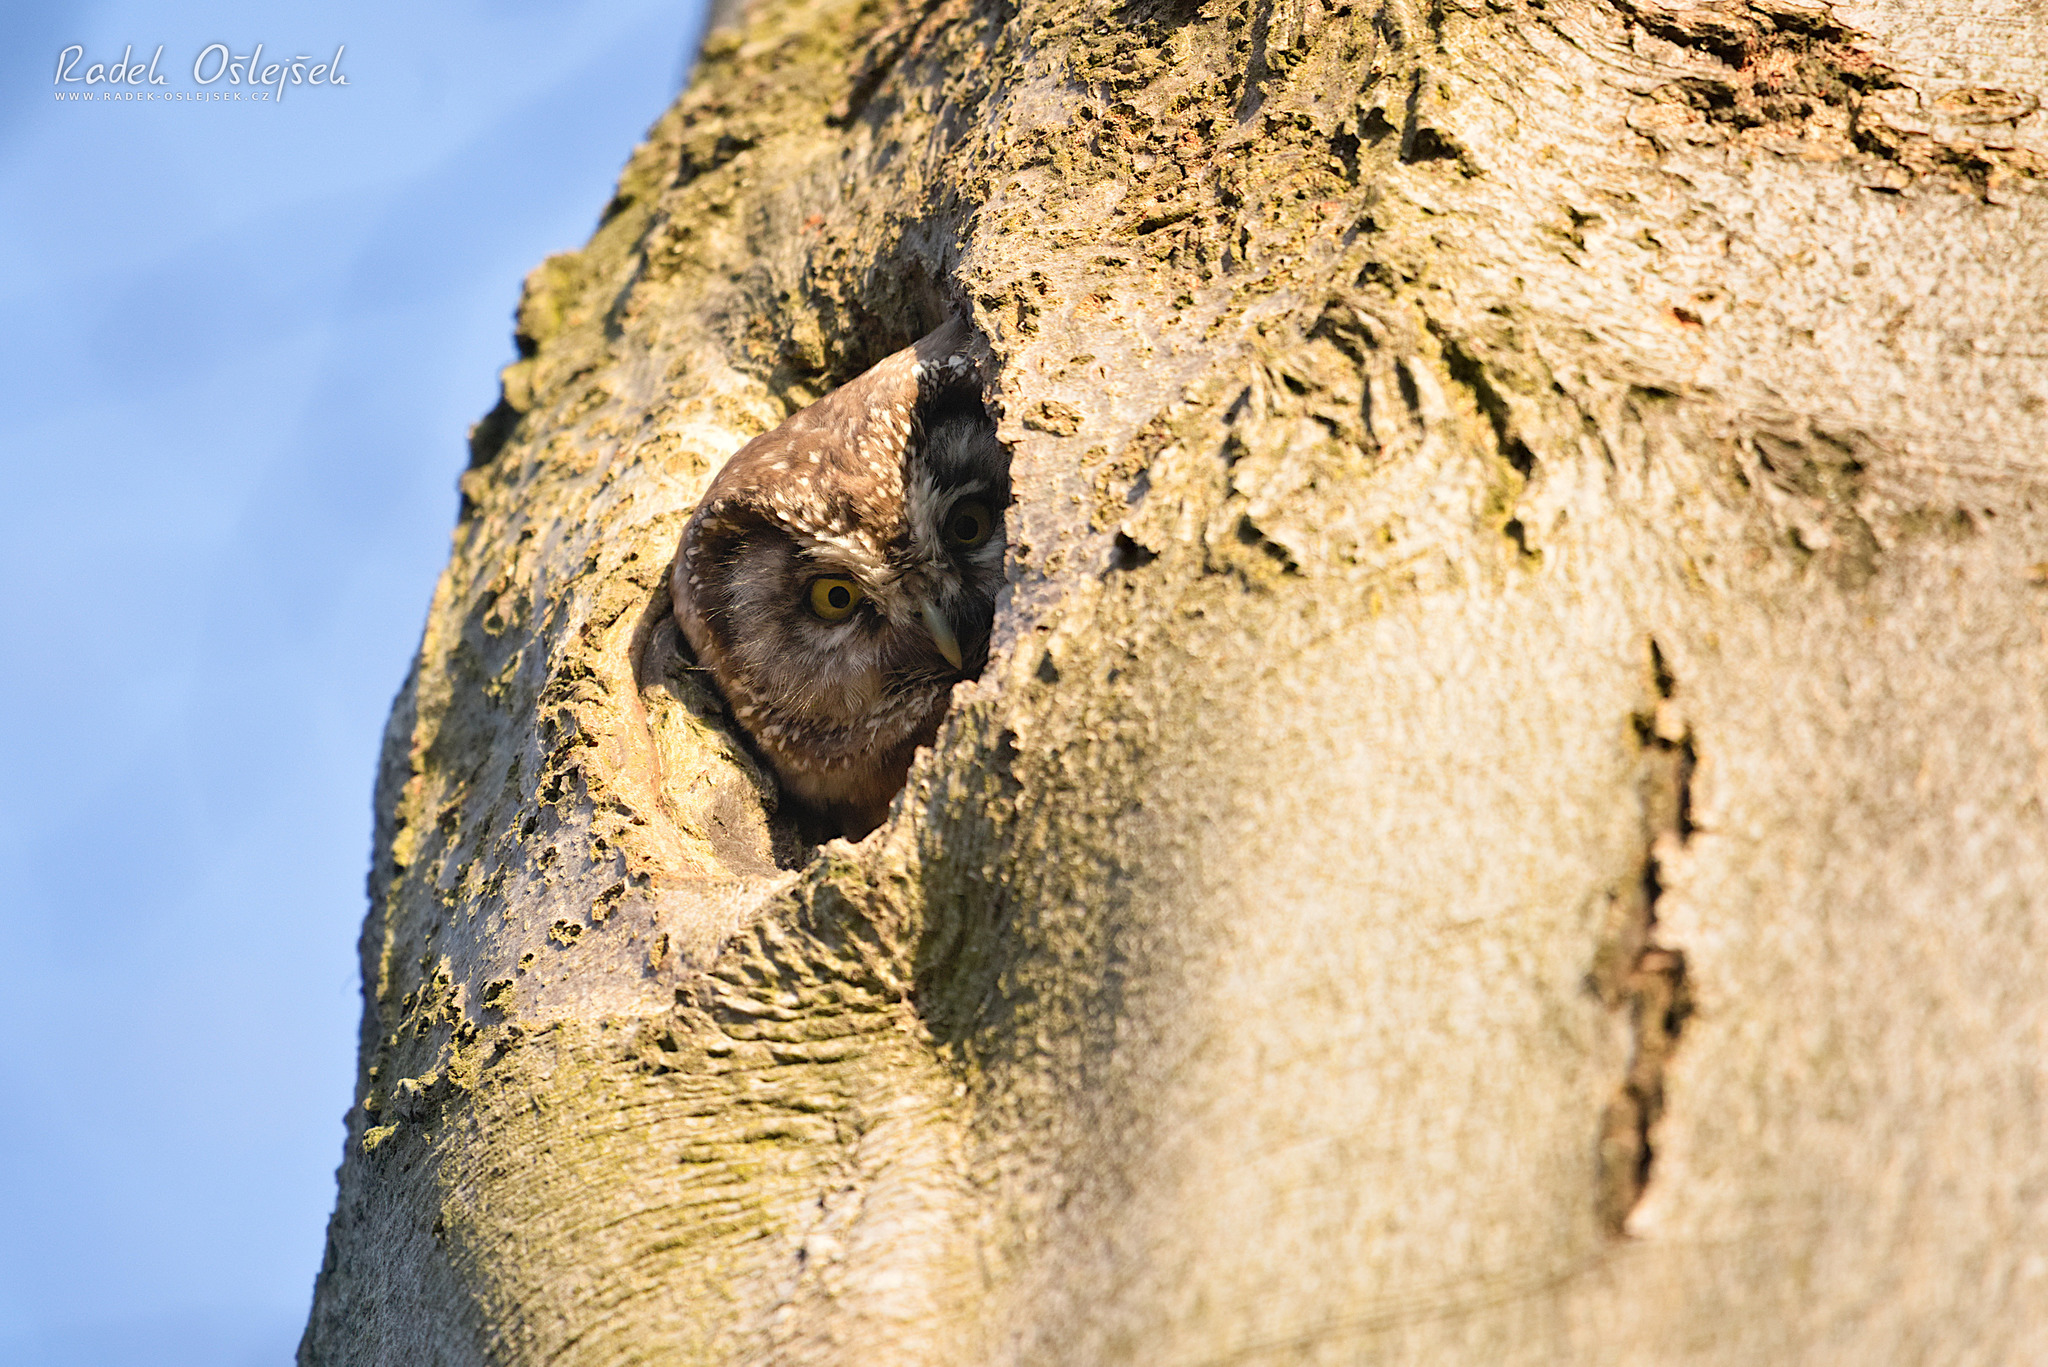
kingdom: Animalia
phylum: Chordata
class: Aves
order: Strigiformes
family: Strigidae
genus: Aegolius
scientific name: Aegolius funereus
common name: Boreal owl
